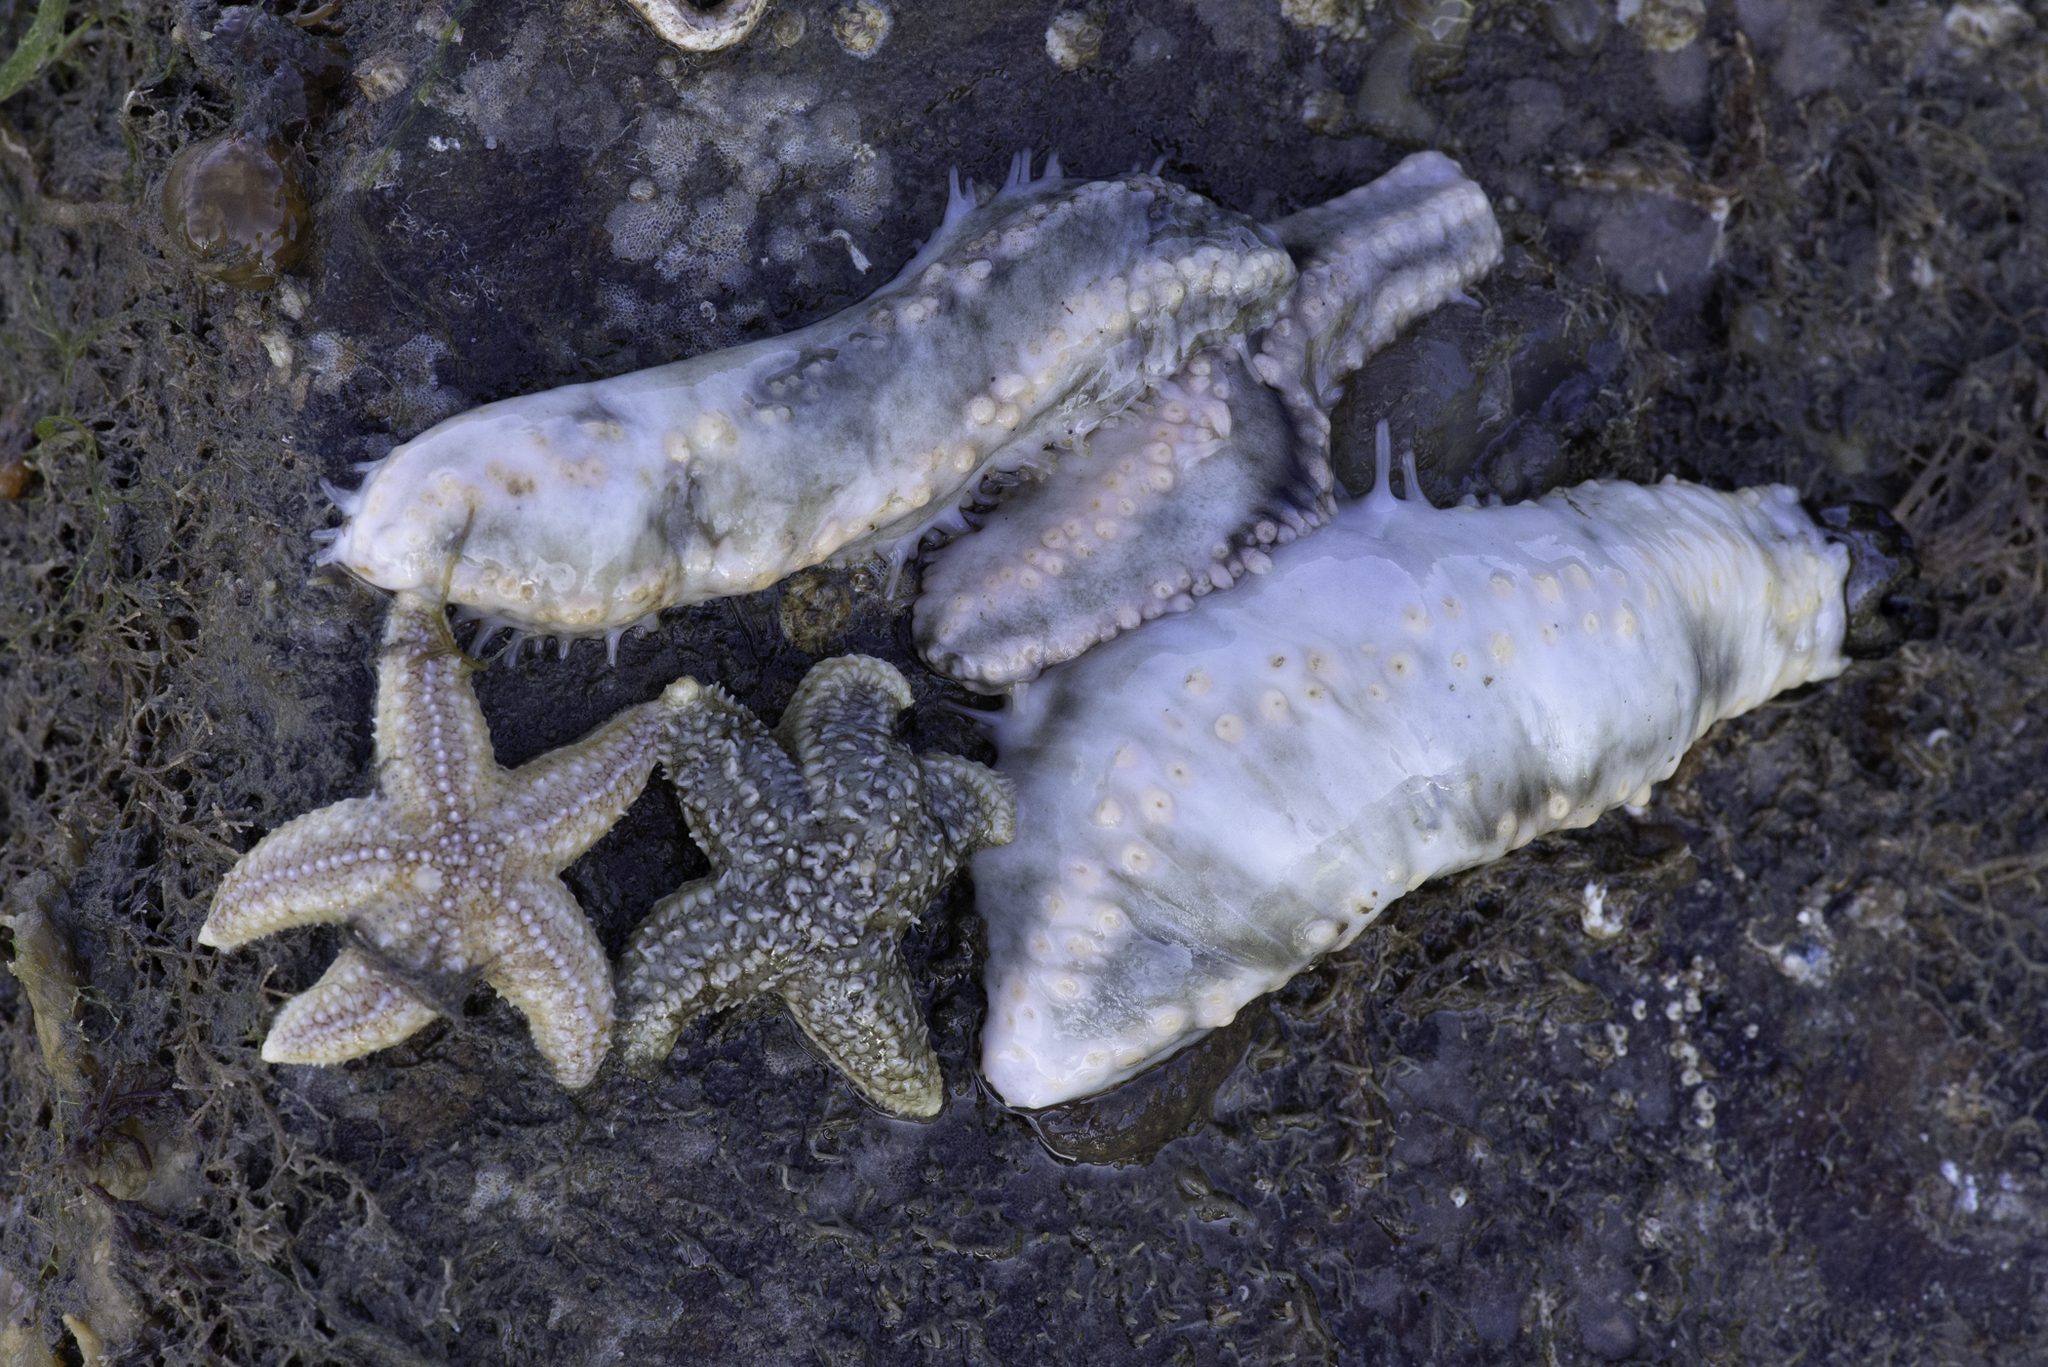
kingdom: Animalia
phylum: Echinodermata
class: Holothuroidea
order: Dendrochirotida
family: Cucumariidae
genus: Pawsonia
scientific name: Pawsonia saxicola
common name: Sea gherkin
